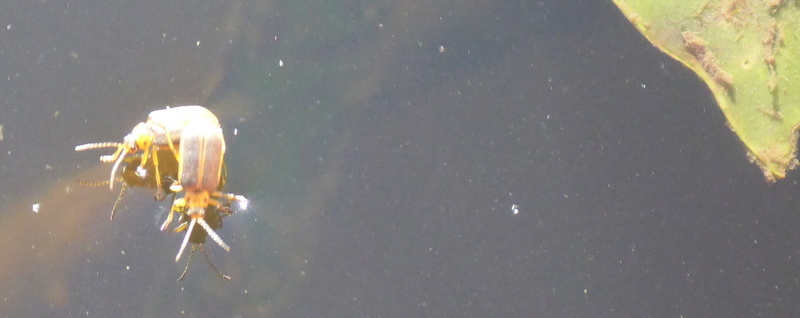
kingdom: Animalia
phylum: Arthropoda
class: Insecta
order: Coleoptera
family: Chrysomelidae
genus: Galerucella
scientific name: Galerucella nymphaeae
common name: Leaf beetle
